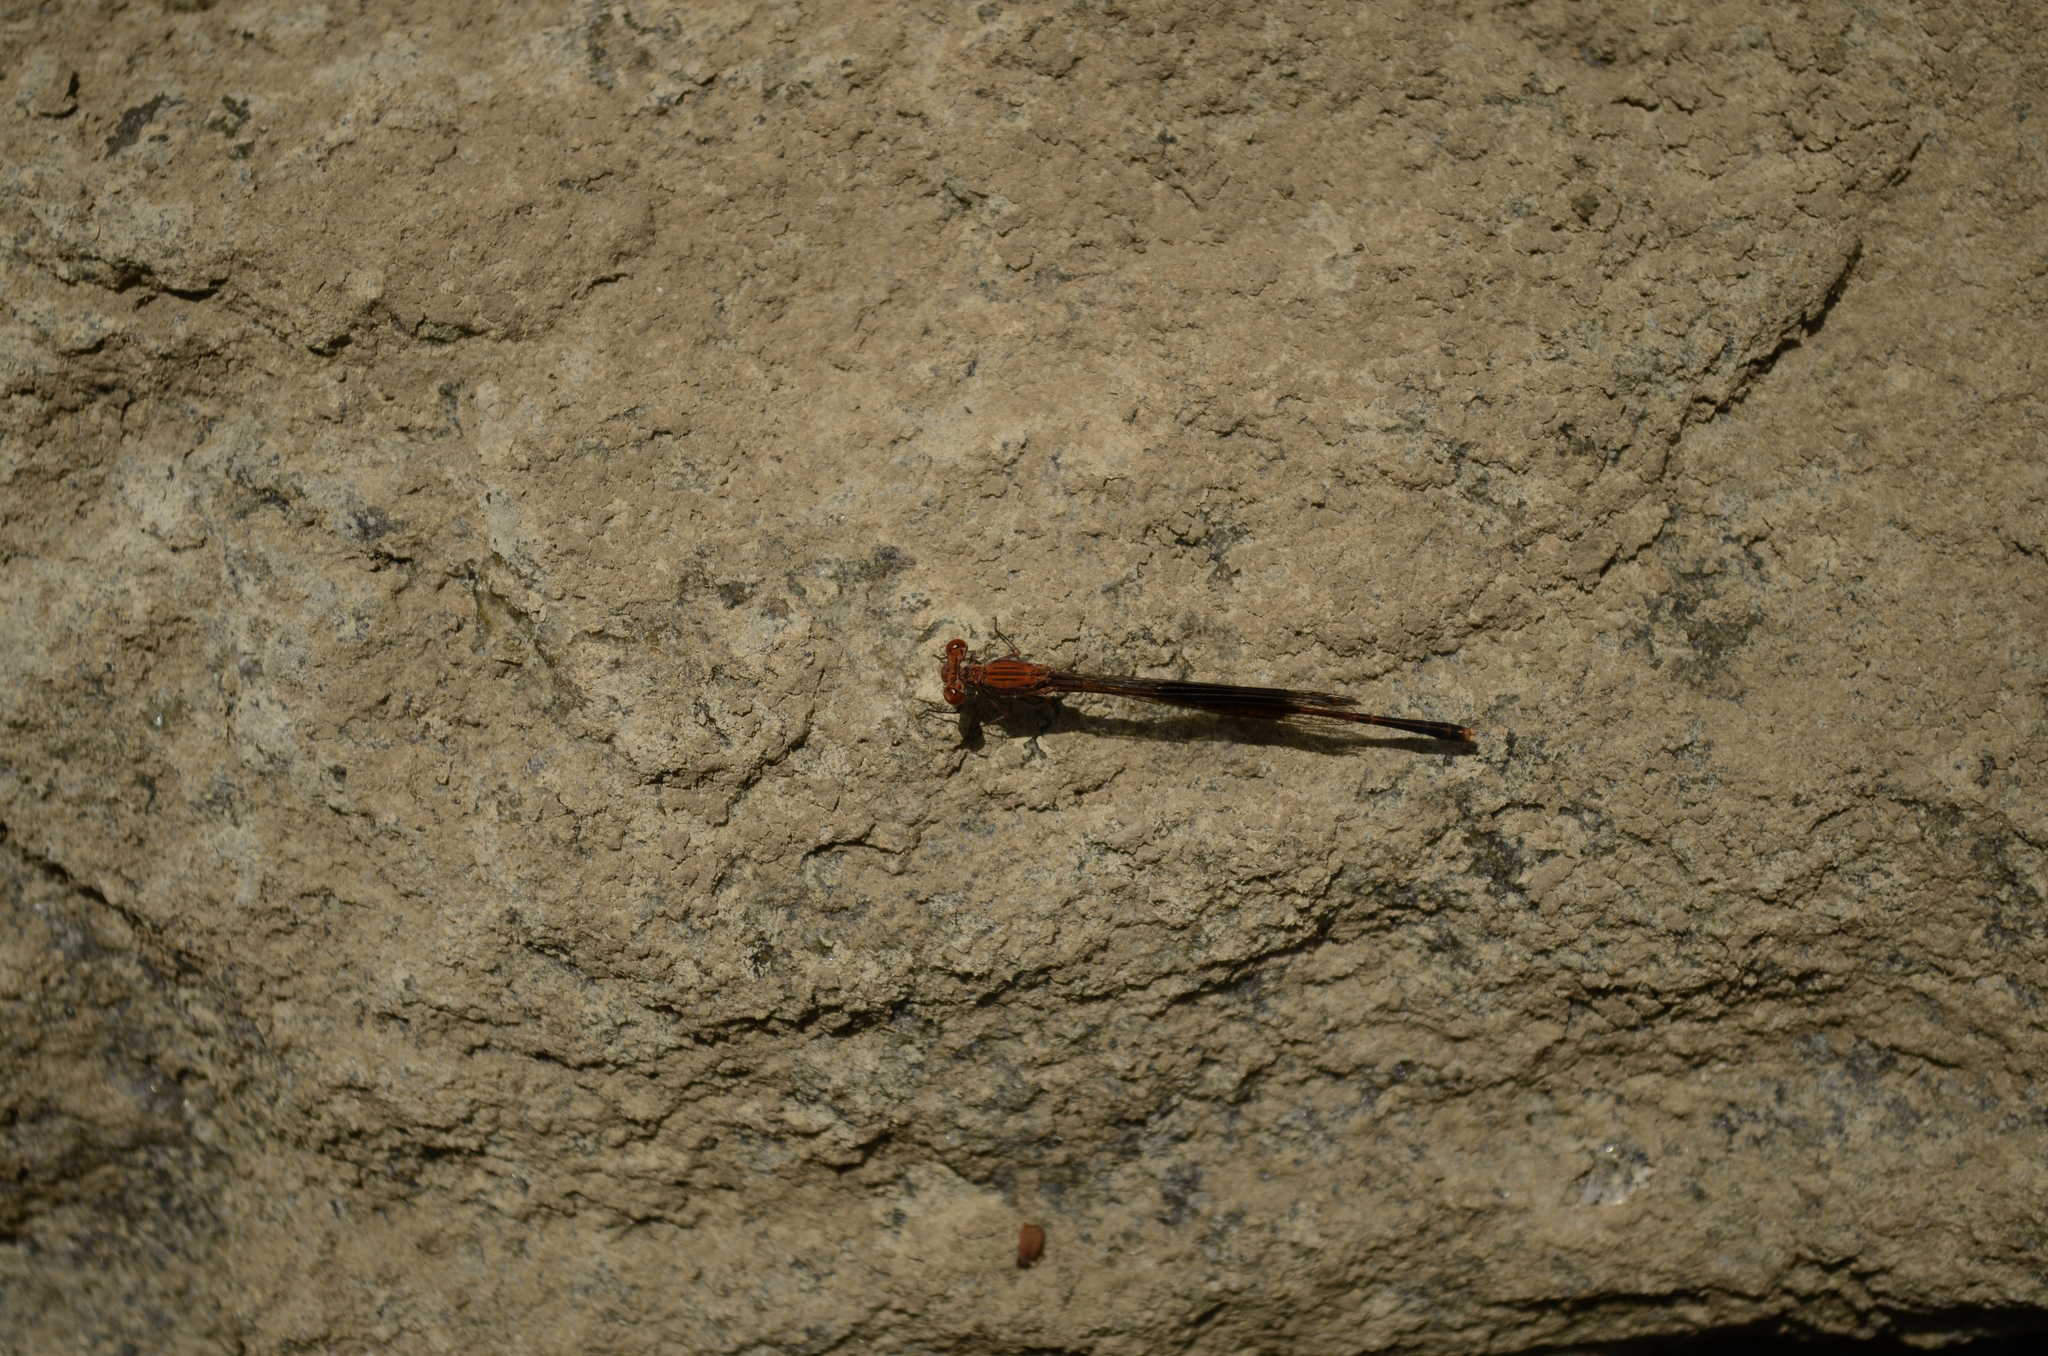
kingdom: Animalia
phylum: Arthropoda
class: Insecta
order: Odonata
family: Platycnemididae
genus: Disparoneura
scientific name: Disparoneura quadrimaculata
